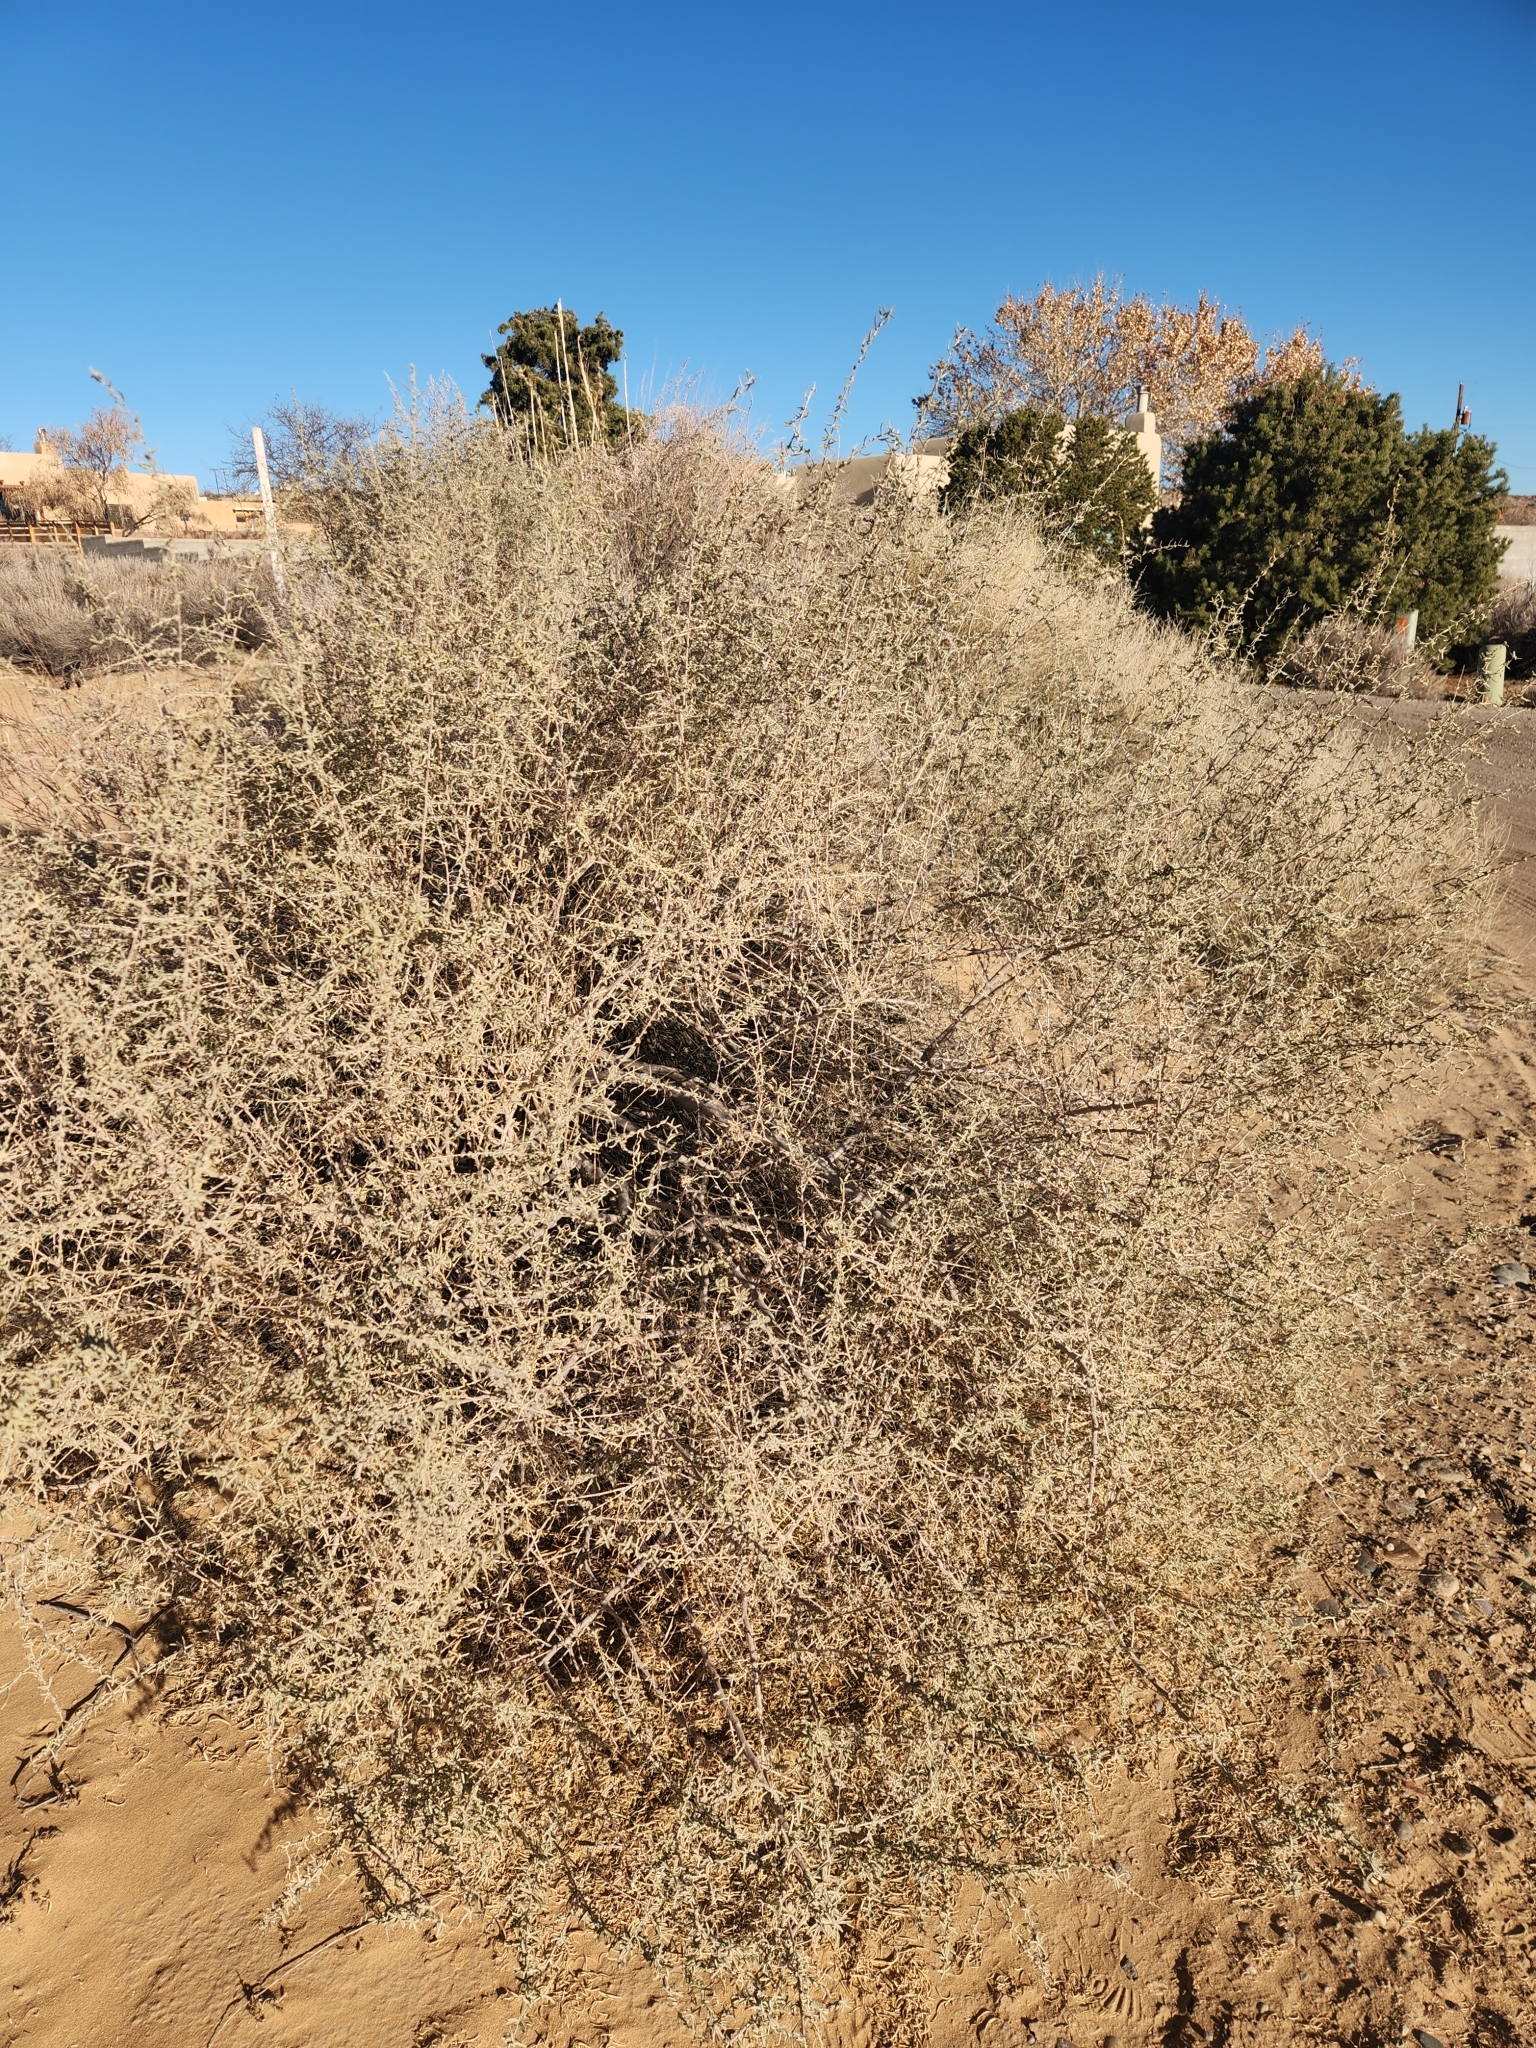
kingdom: Plantae
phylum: Tracheophyta
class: Magnoliopsida
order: Caryophyllales
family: Amaranthaceae
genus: Atriplex
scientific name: Atriplex canescens
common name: Four-wing saltbush
